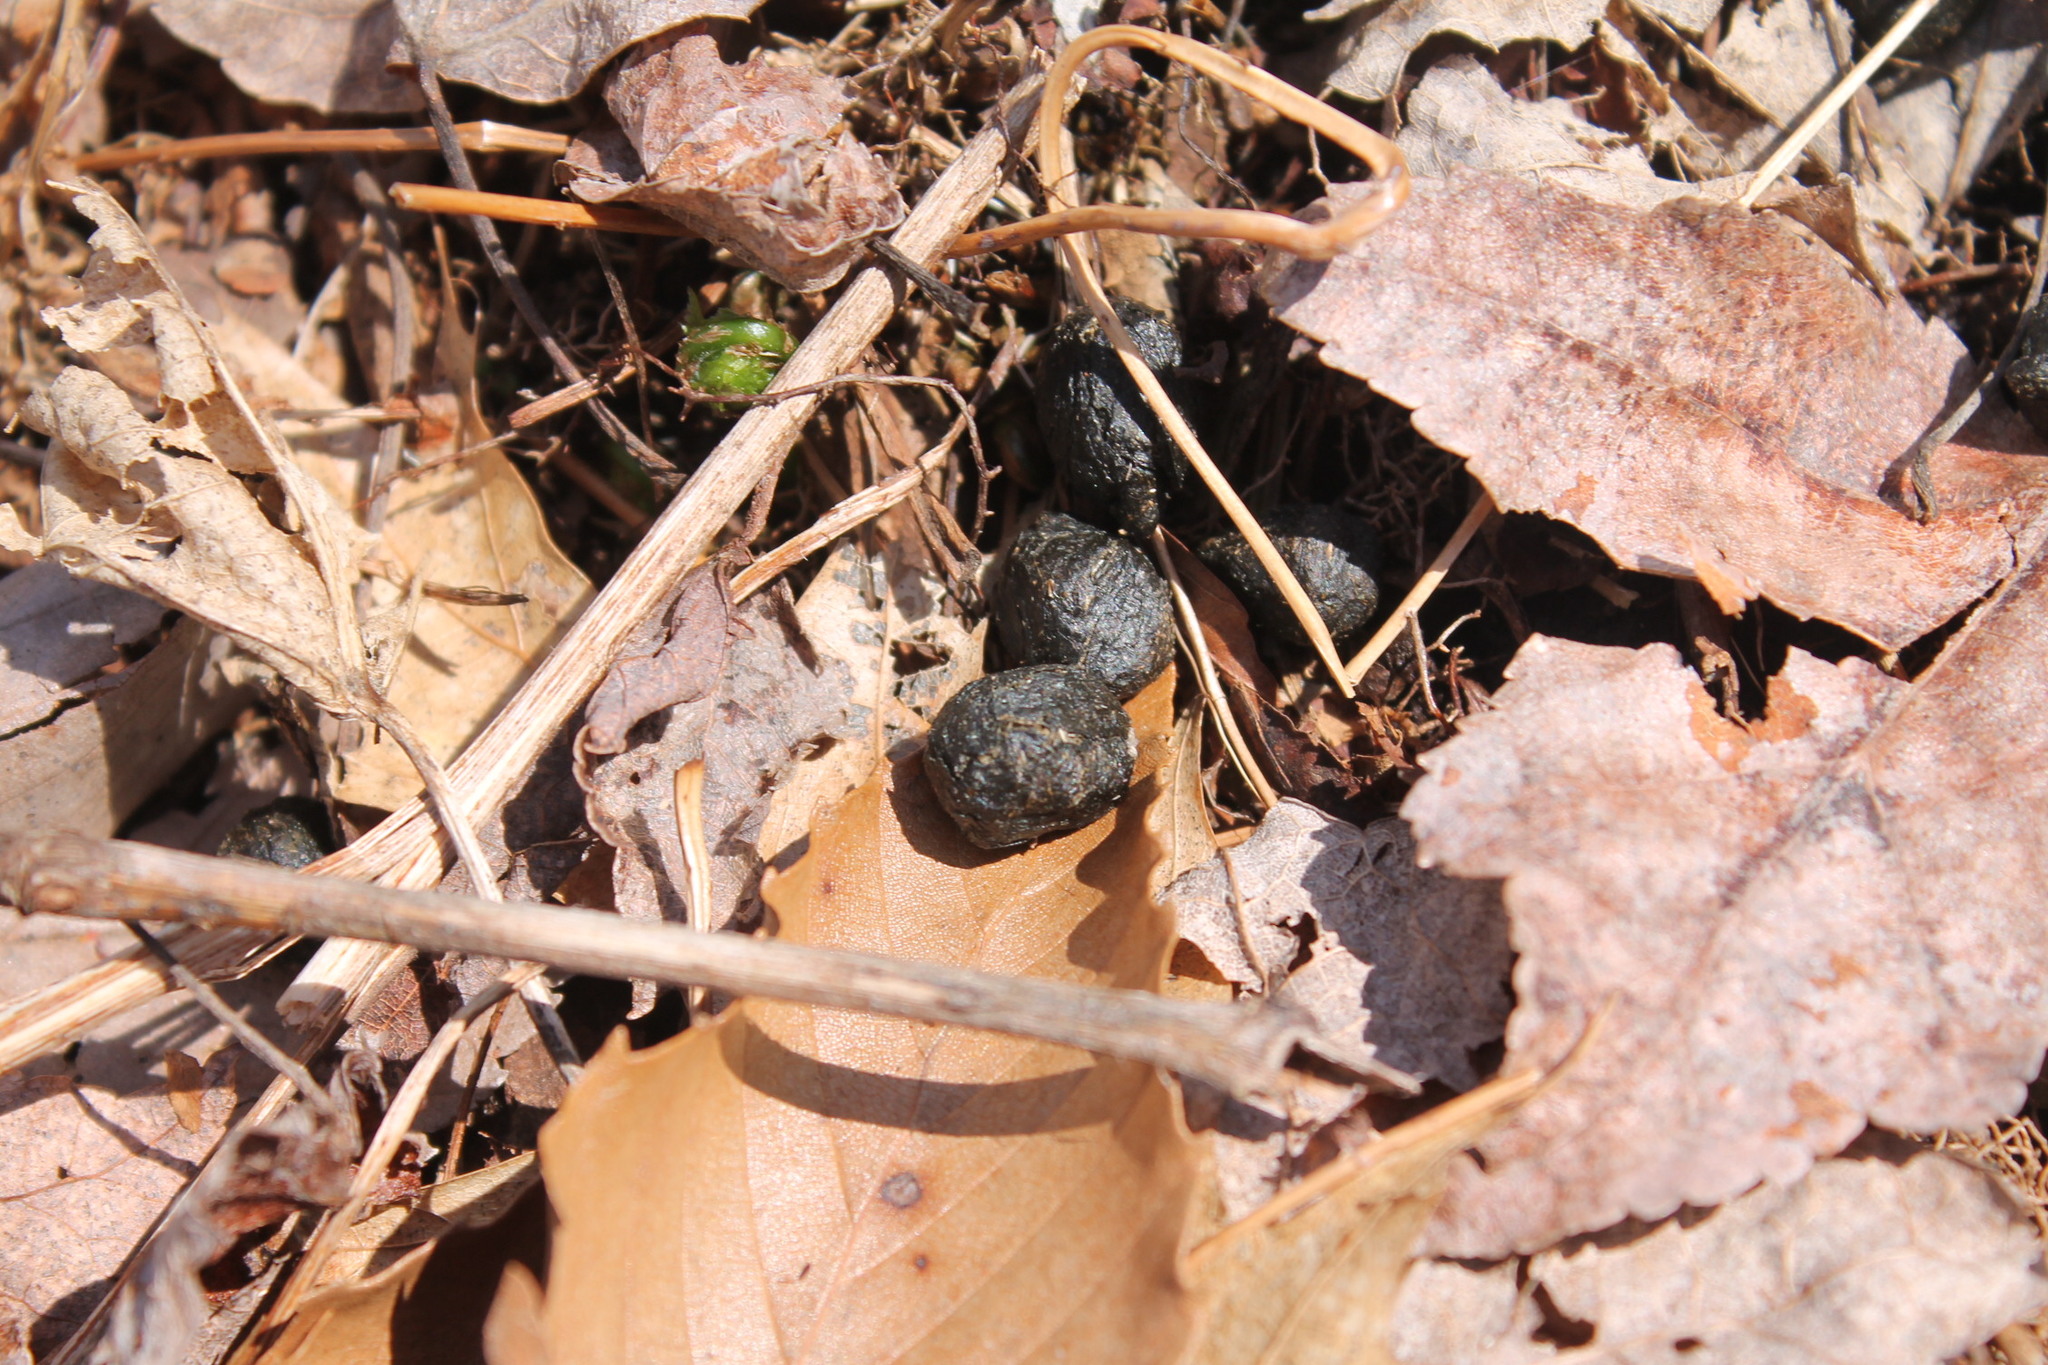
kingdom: Animalia
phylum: Chordata
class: Mammalia
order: Lagomorpha
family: Leporidae
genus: Sylvilagus
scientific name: Sylvilagus floridanus
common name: Eastern cottontail
